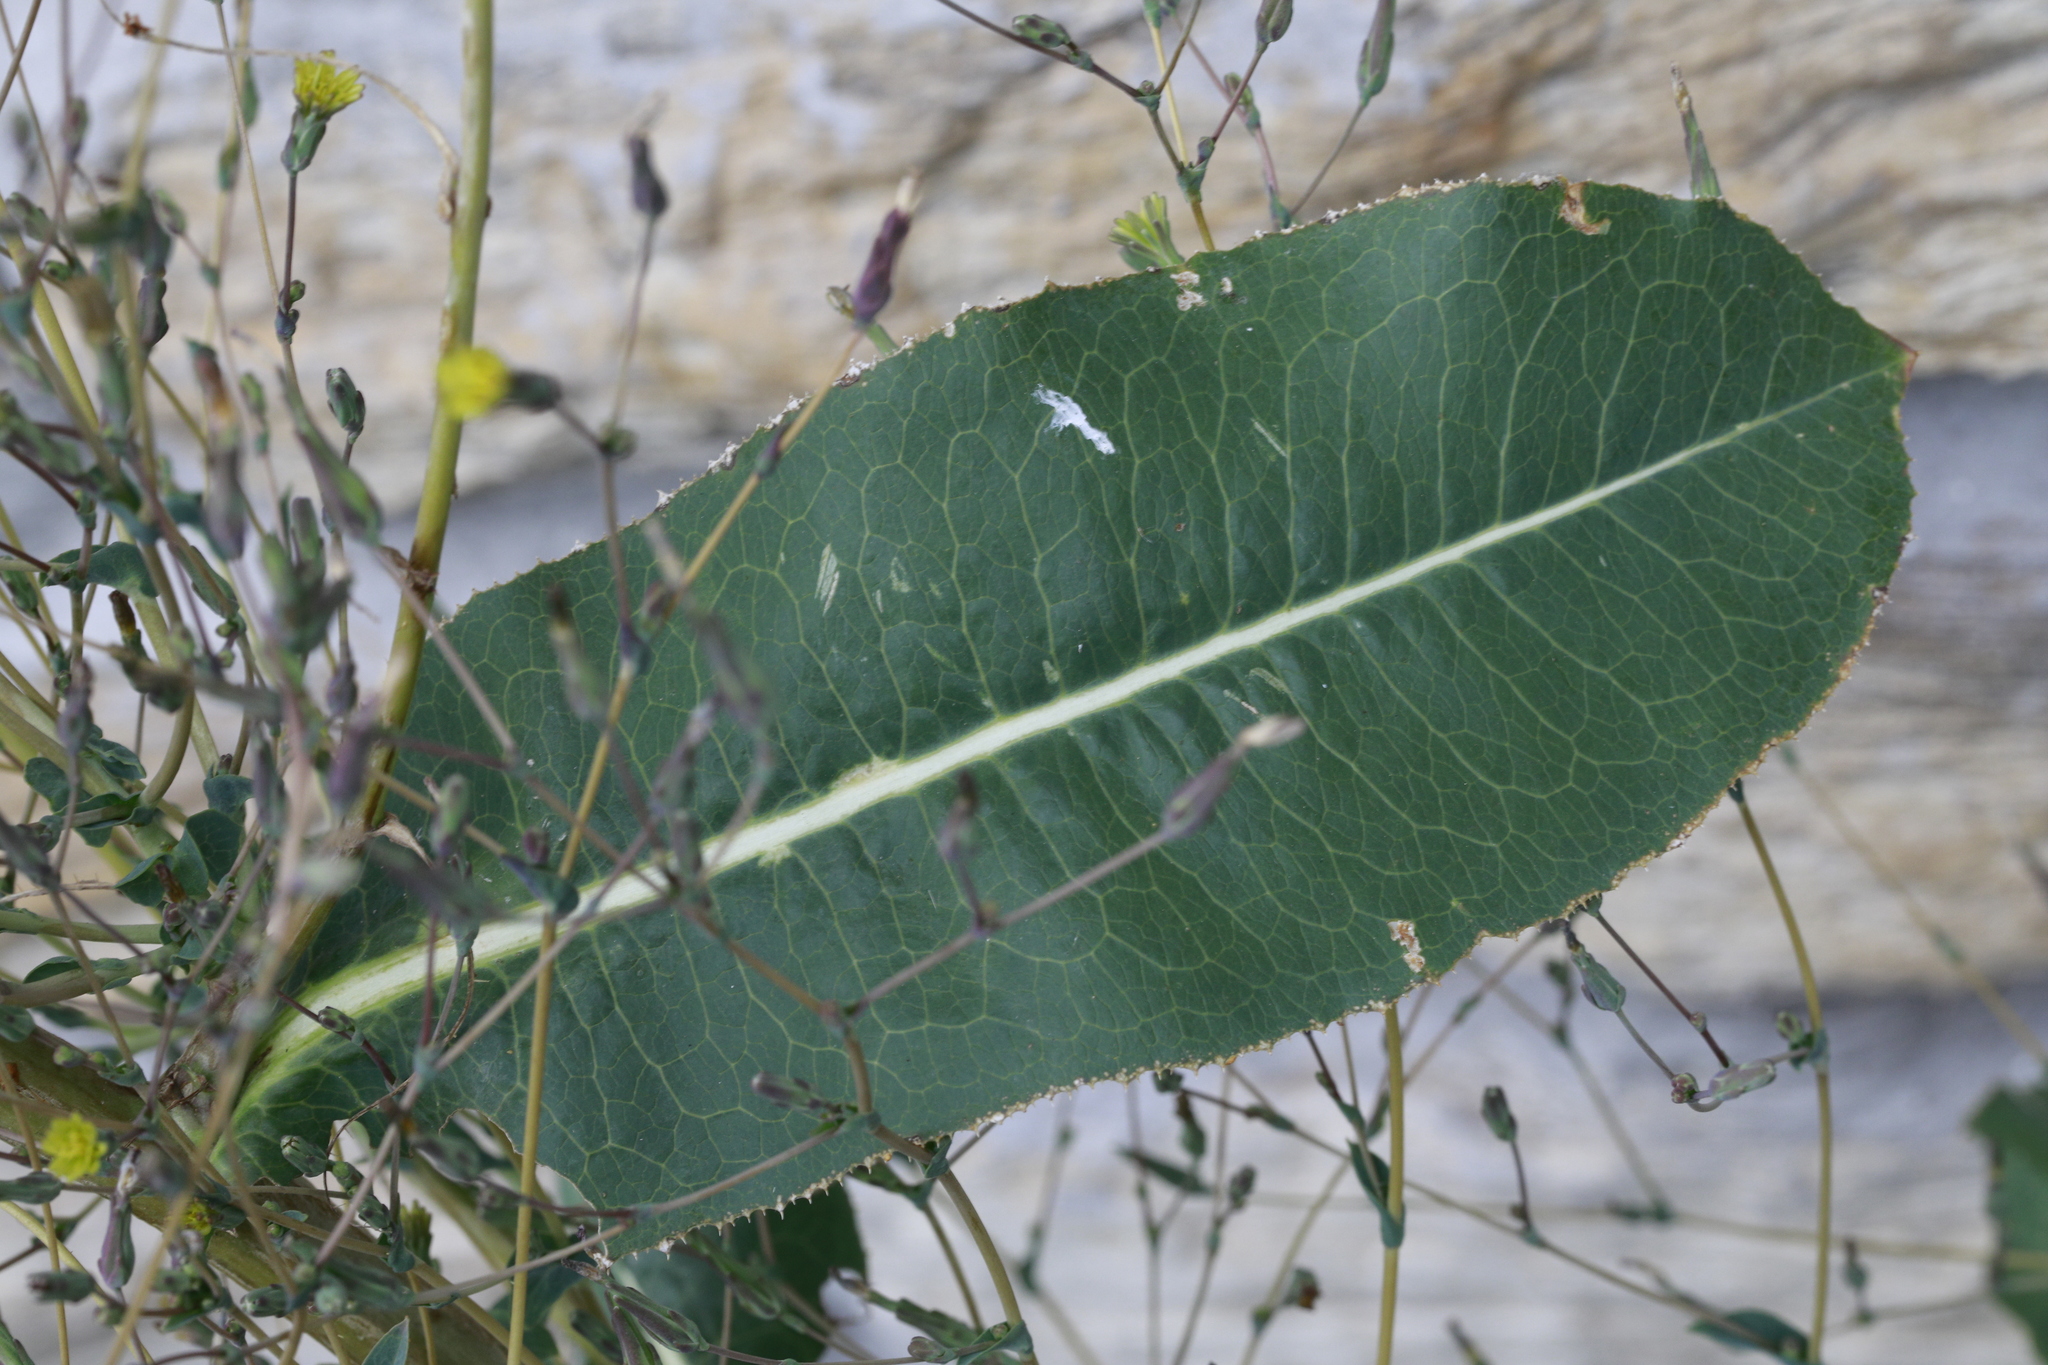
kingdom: Plantae
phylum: Tracheophyta
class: Magnoliopsida
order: Asterales
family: Asteraceae
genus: Lactuca
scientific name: Lactuca serriola
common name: Prickly lettuce
